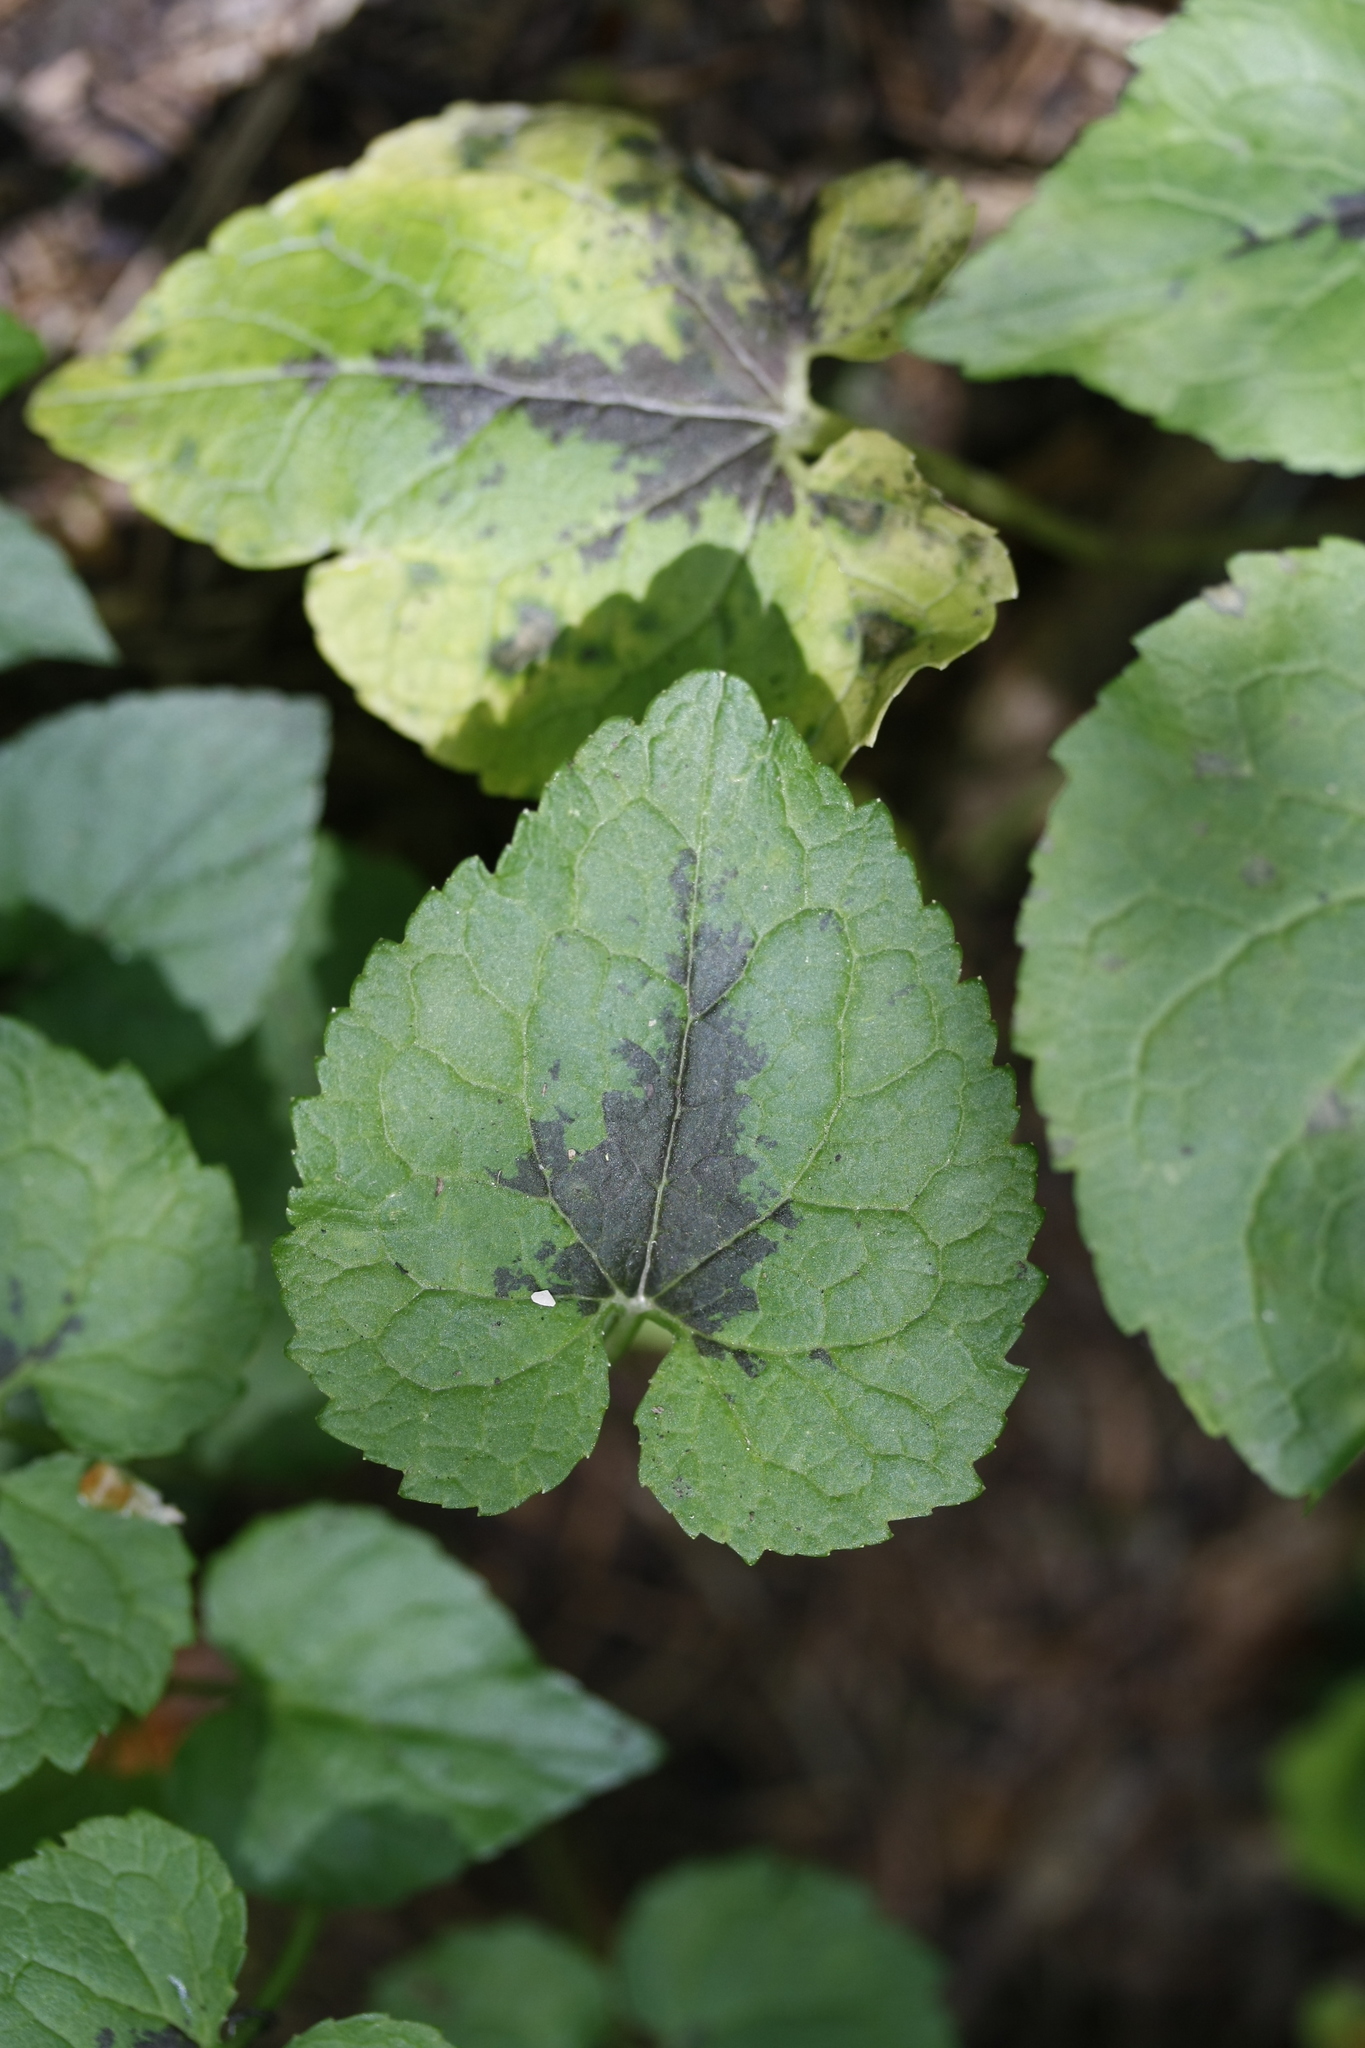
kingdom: Plantae
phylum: Tracheophyta
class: Magnoliopsida
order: Asterales
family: Campanulaceae
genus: Phyteuma
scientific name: Phyteuma spicatum
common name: Spiked rampion
